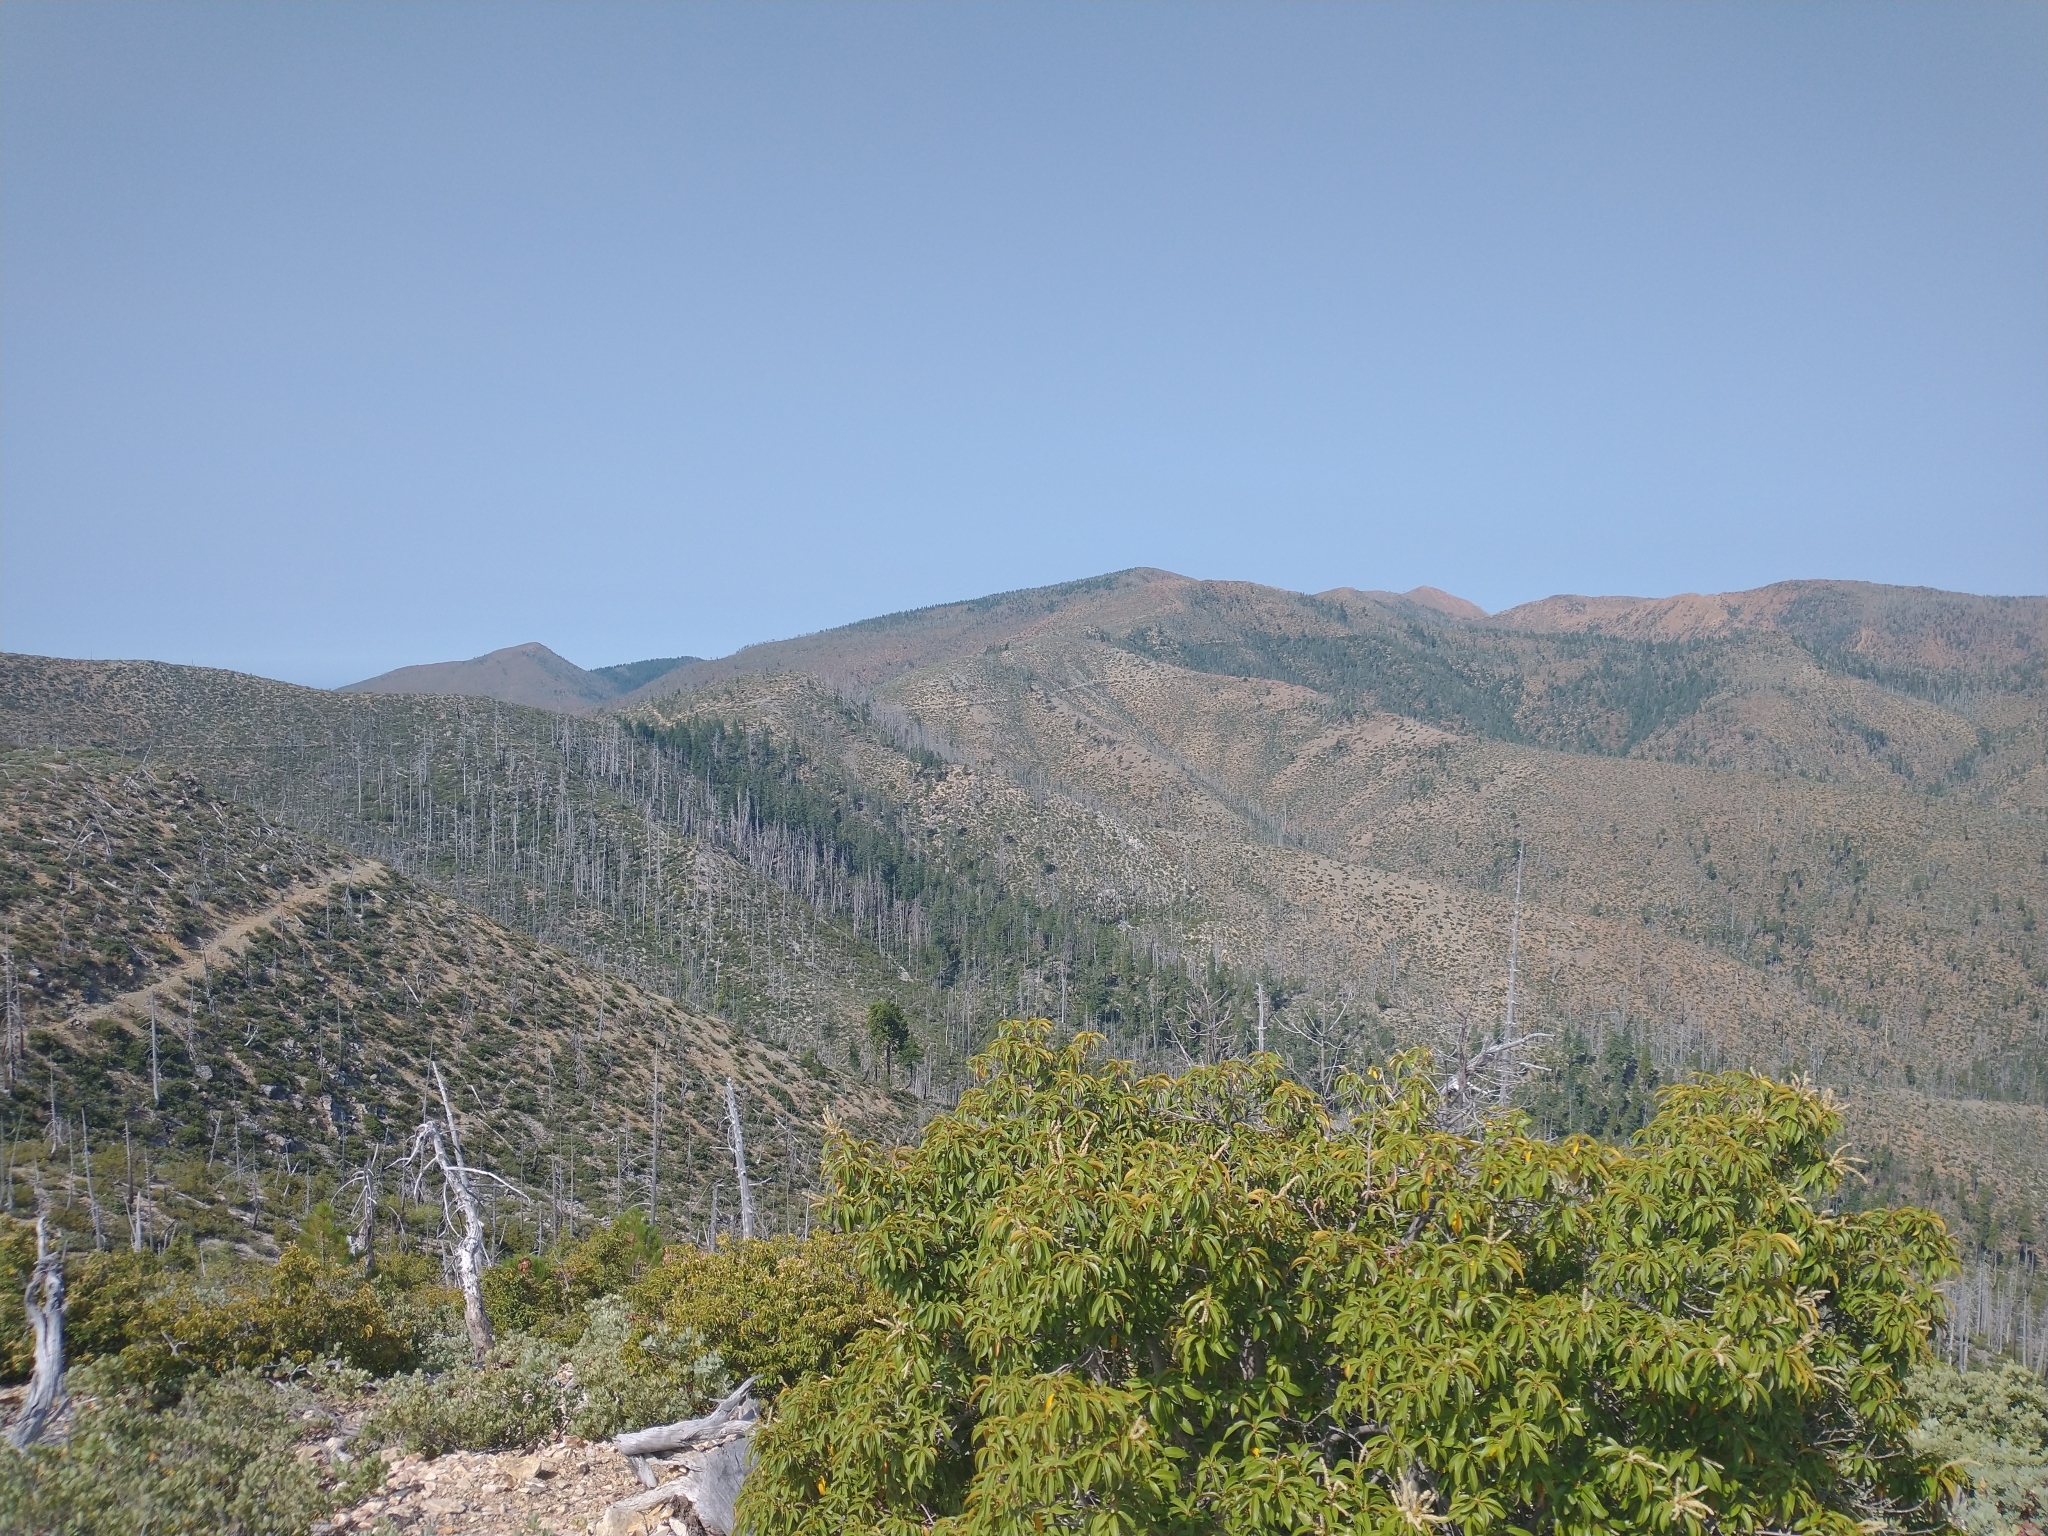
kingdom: Plantae
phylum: Tracheophyta
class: Magnoliopsida
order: Fagales
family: Fagaceae
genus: Chrysolepis
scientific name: Chrysolepis chrysophylla
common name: Giant chinquapin
